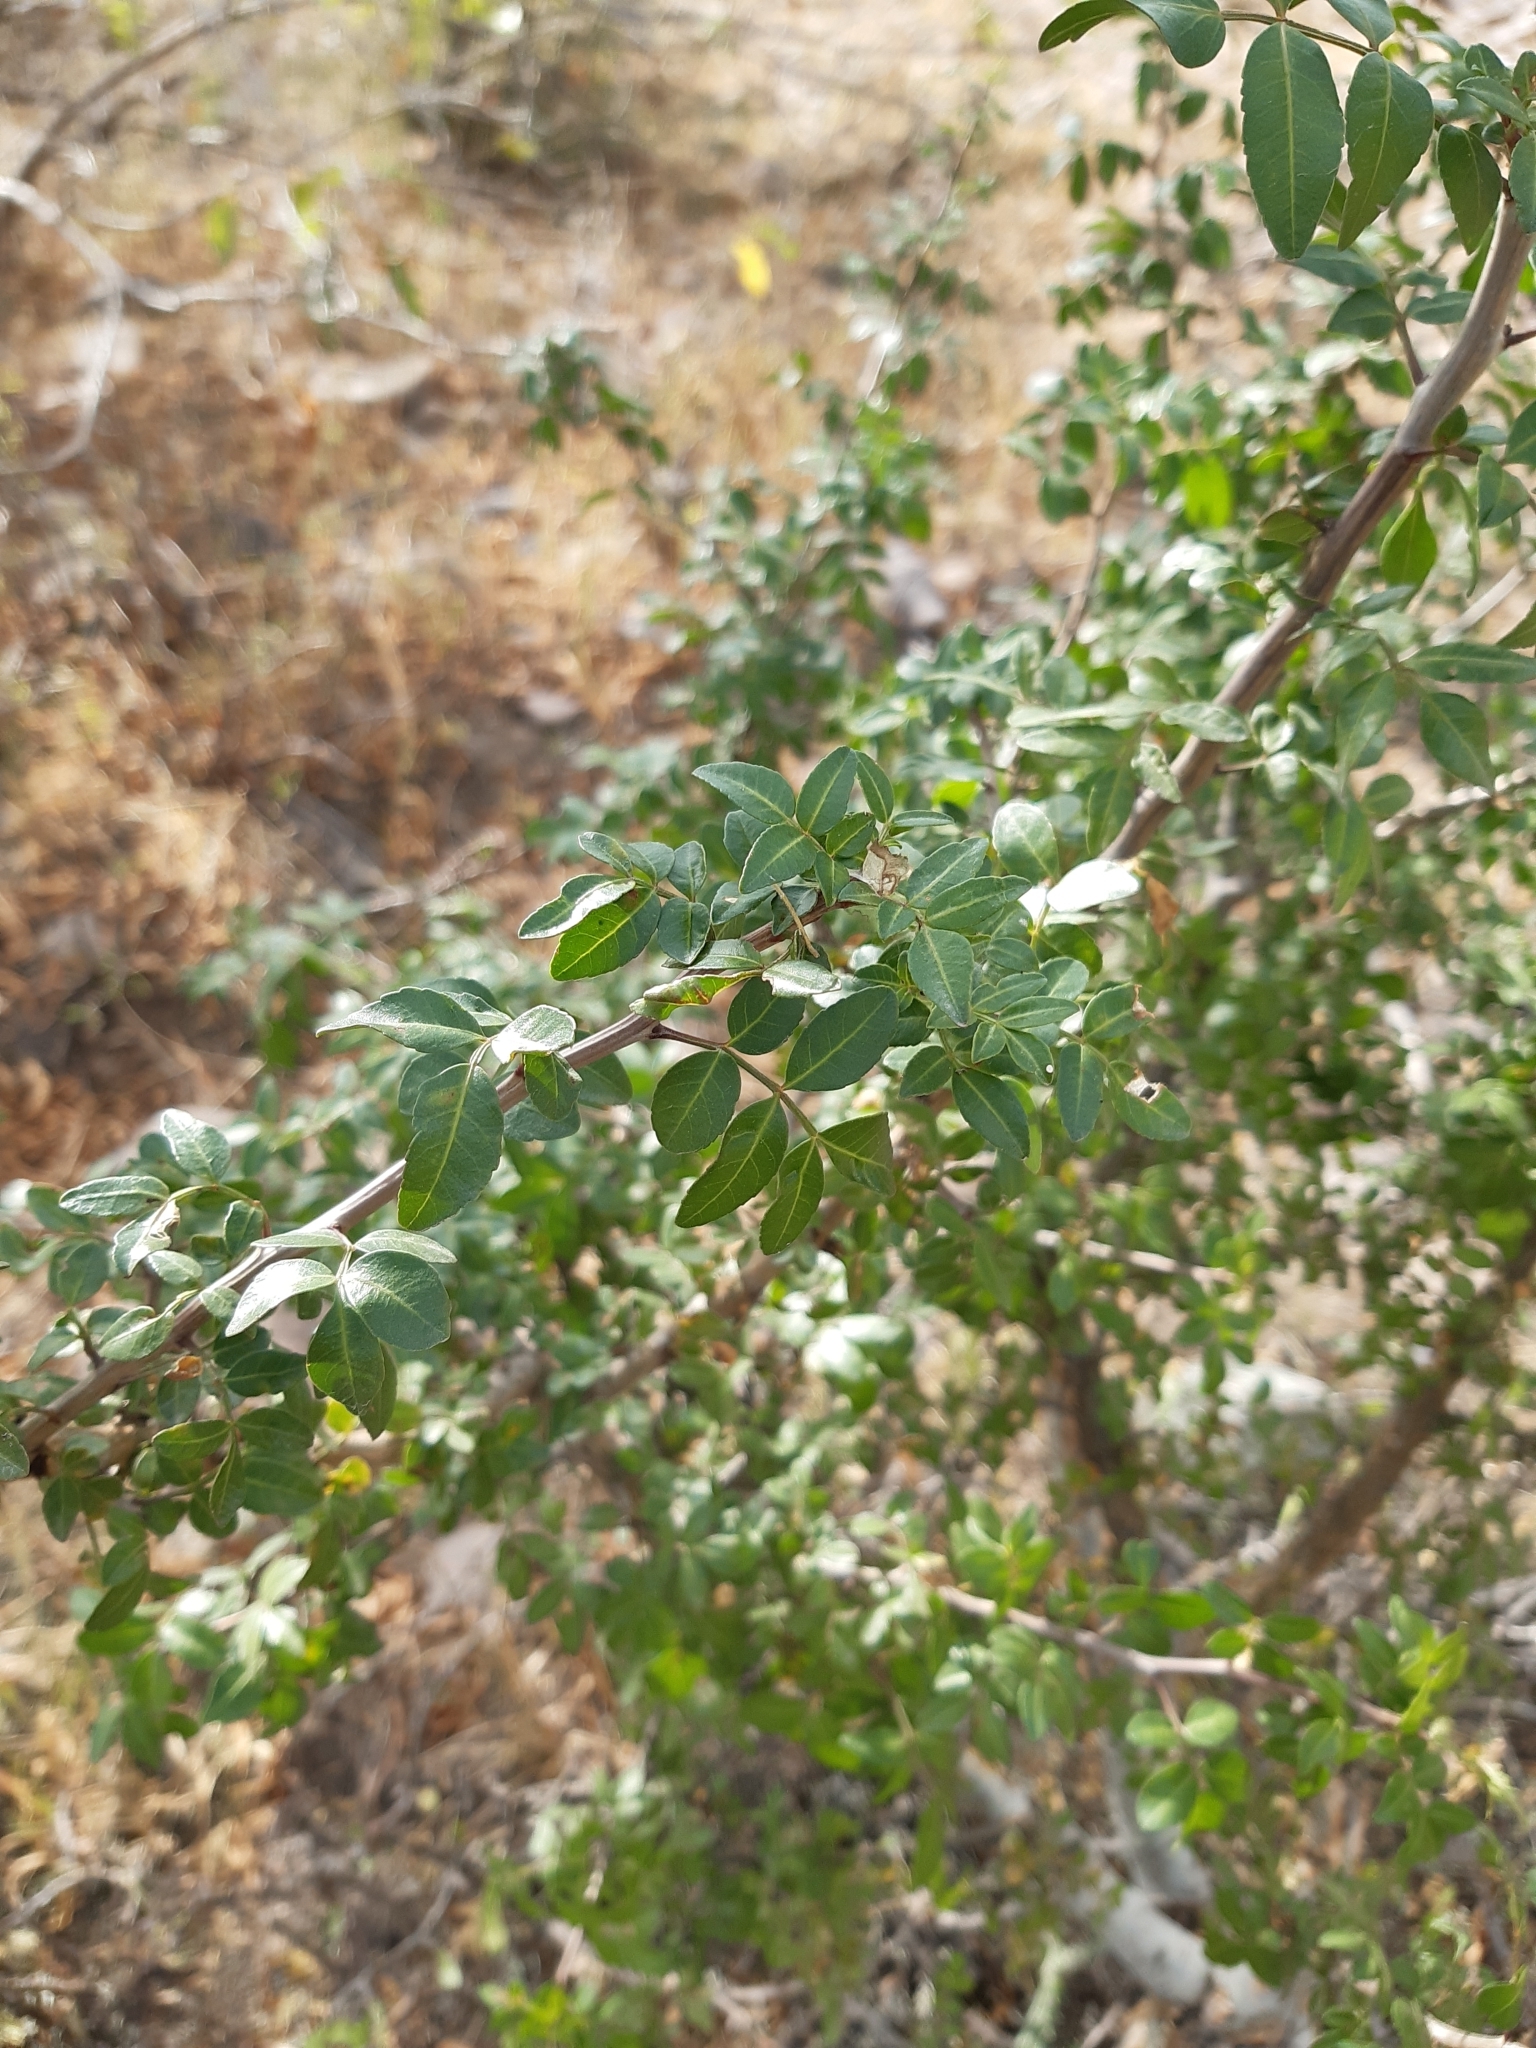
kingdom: Plantae
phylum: Tracheophyta
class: Magnoliopsida
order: Sapindales
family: Burseraceae
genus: Bursera
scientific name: Bursera fagaroides
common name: Elephant tree
